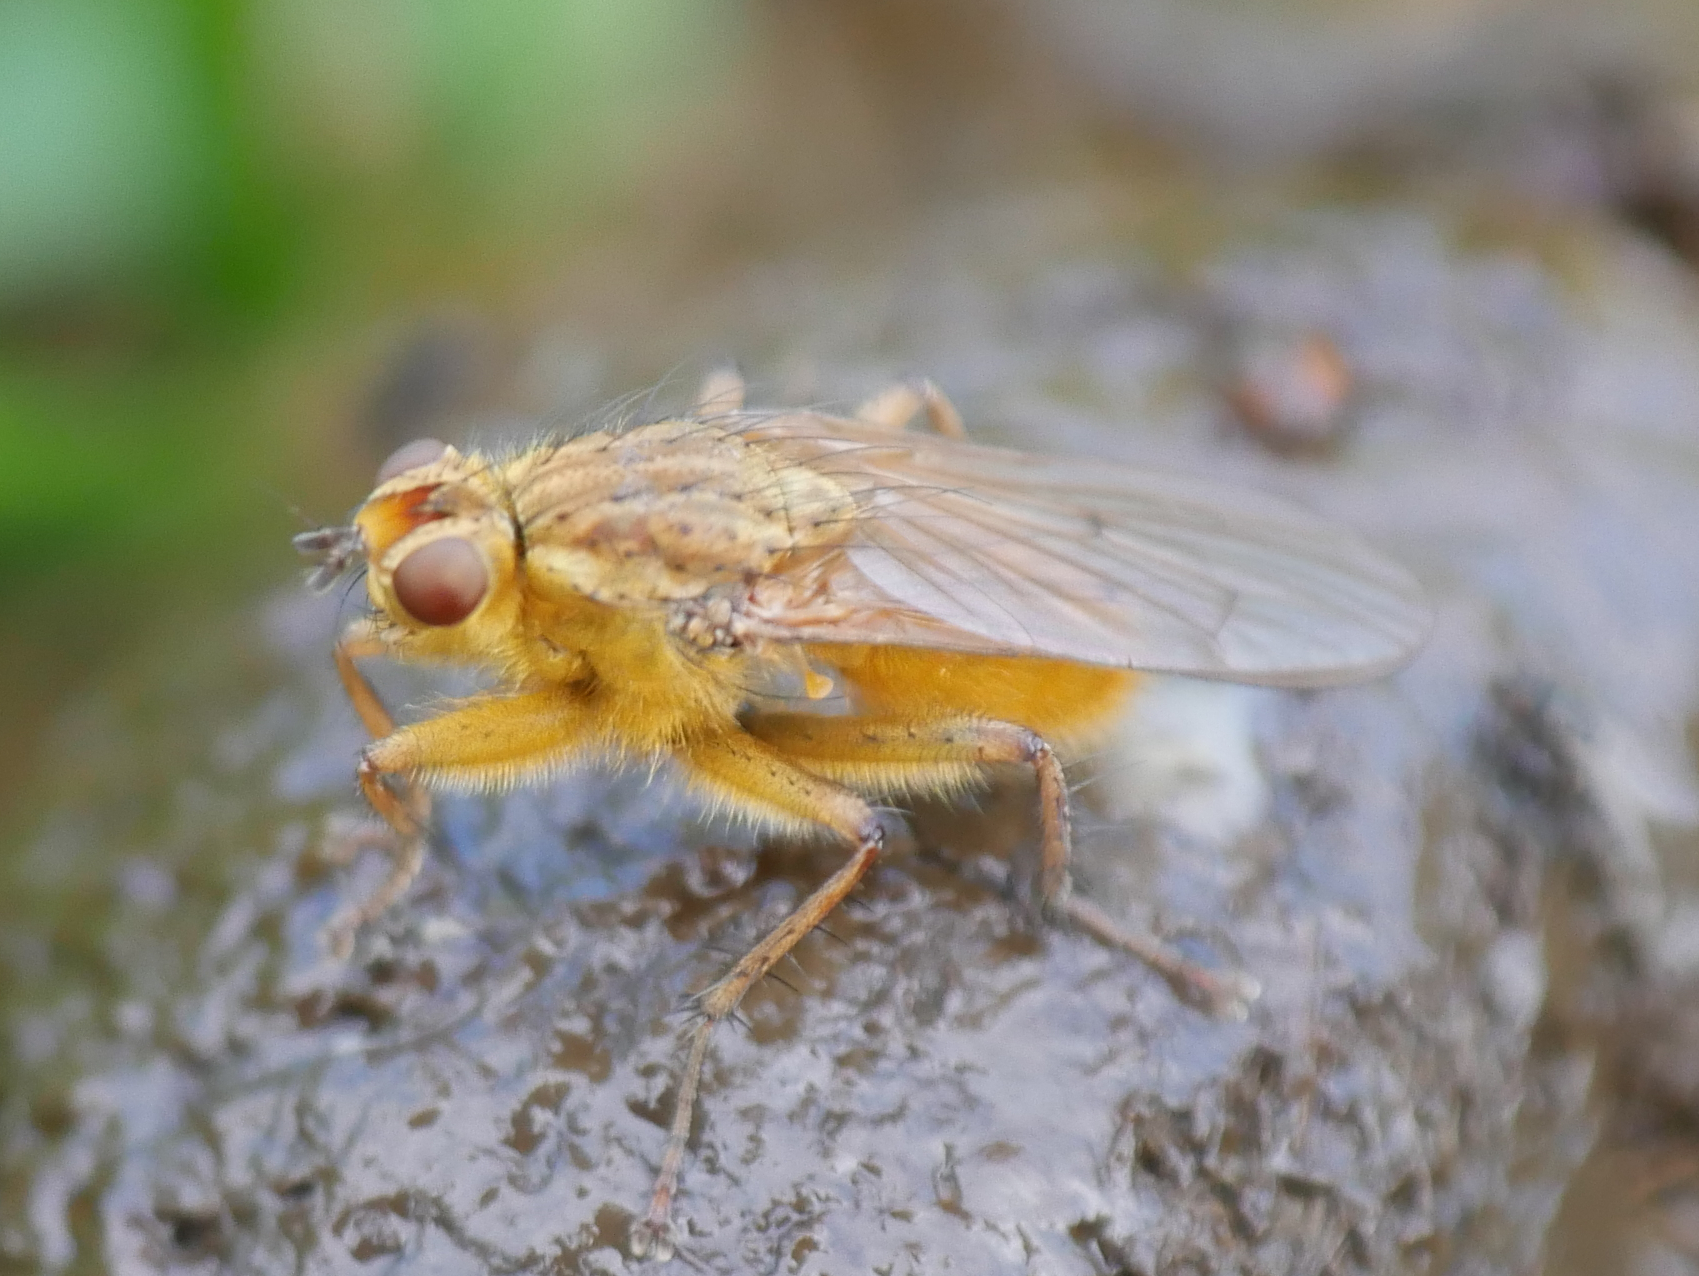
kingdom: Animalia
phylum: Arthropoda
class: Insecta
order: Diptera
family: Scathophagidae
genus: Scathophaga
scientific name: Scathophaga stercoraria
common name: Yellow dung fly
